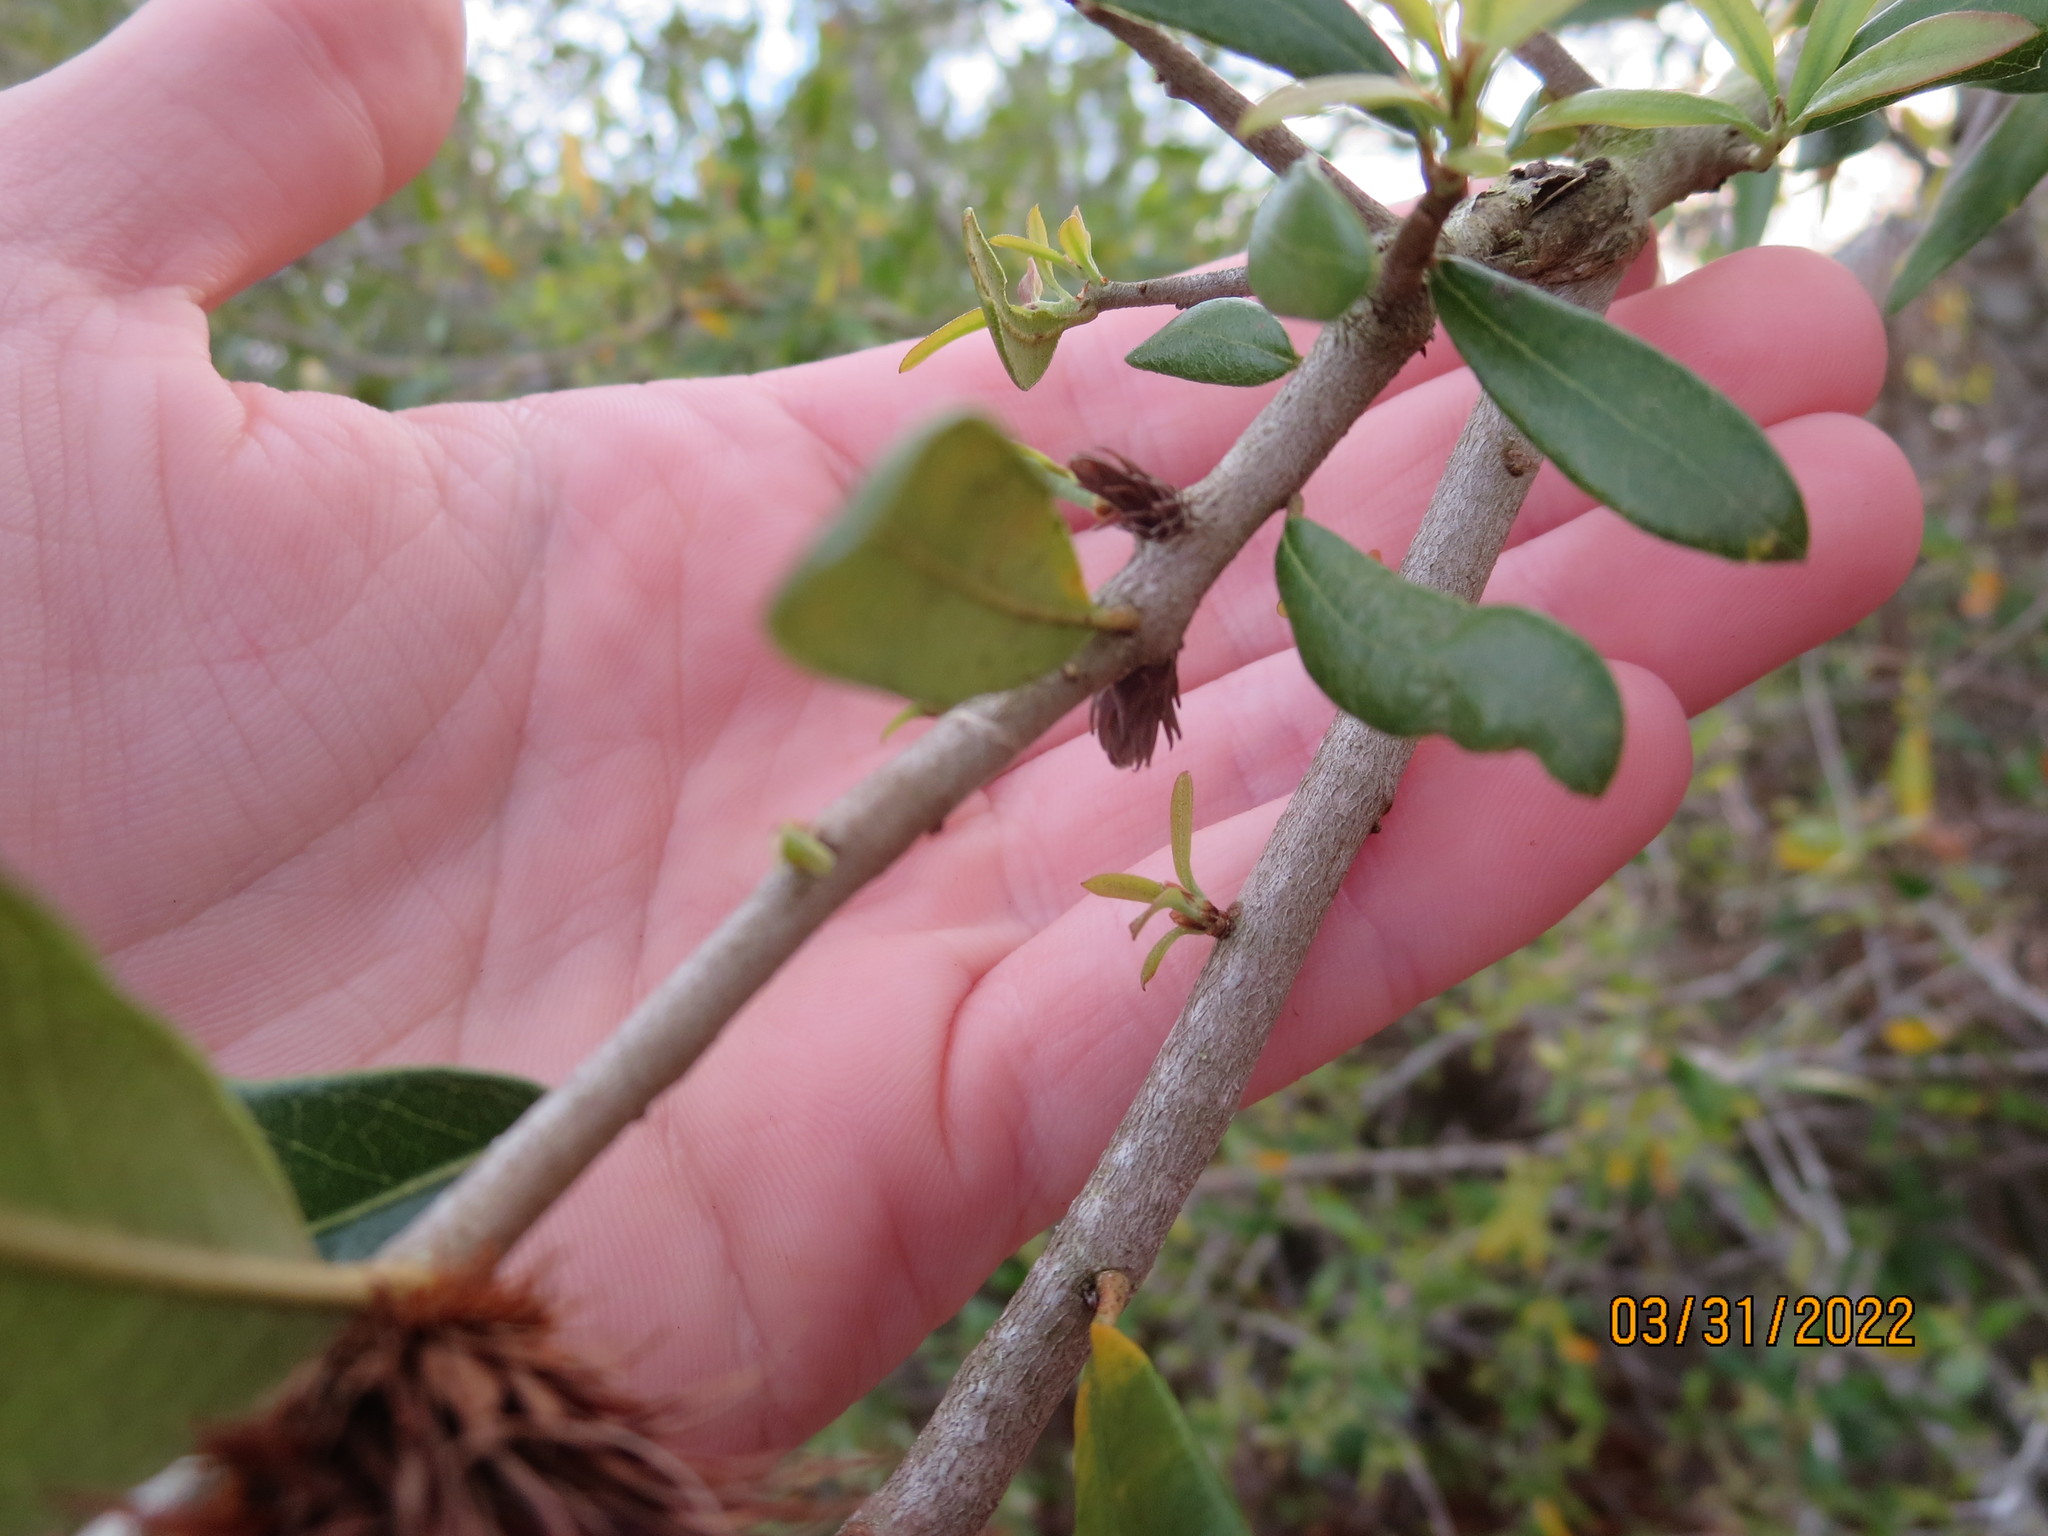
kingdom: Animalia
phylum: Arthropoda
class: Insecta
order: Hymenoptera
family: Cynipidae
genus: Andricus
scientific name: Andricus quercusfoliatus
